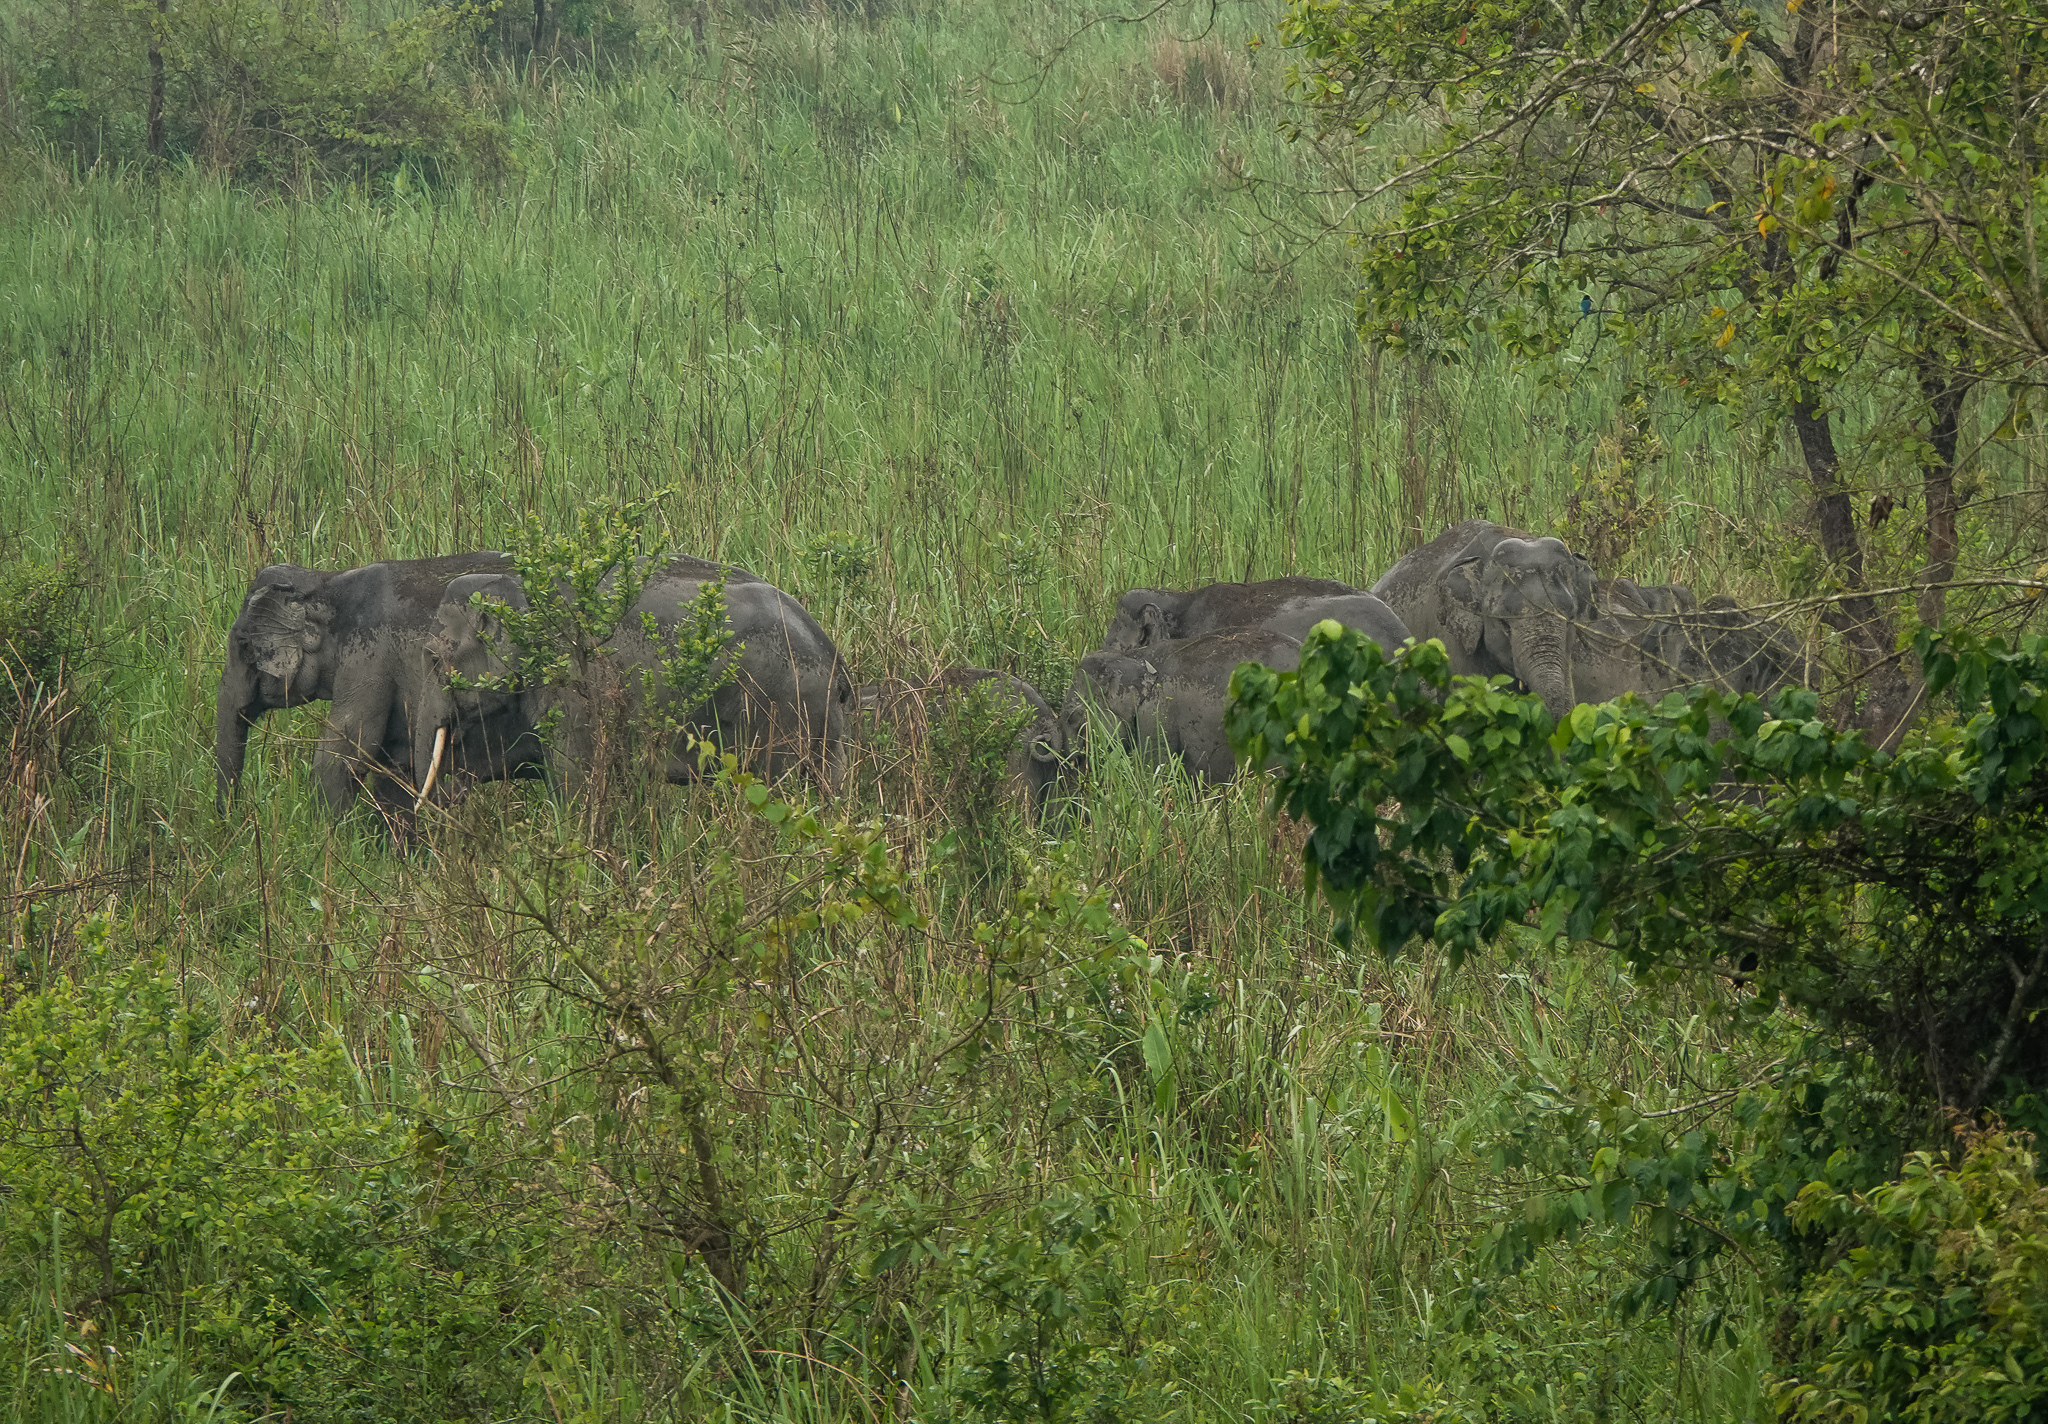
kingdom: Animalia
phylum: Chordata
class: Mammalia
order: Proboscidea
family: Elephantidae
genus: Elephas
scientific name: Elephas maximus
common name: Asian elephant
